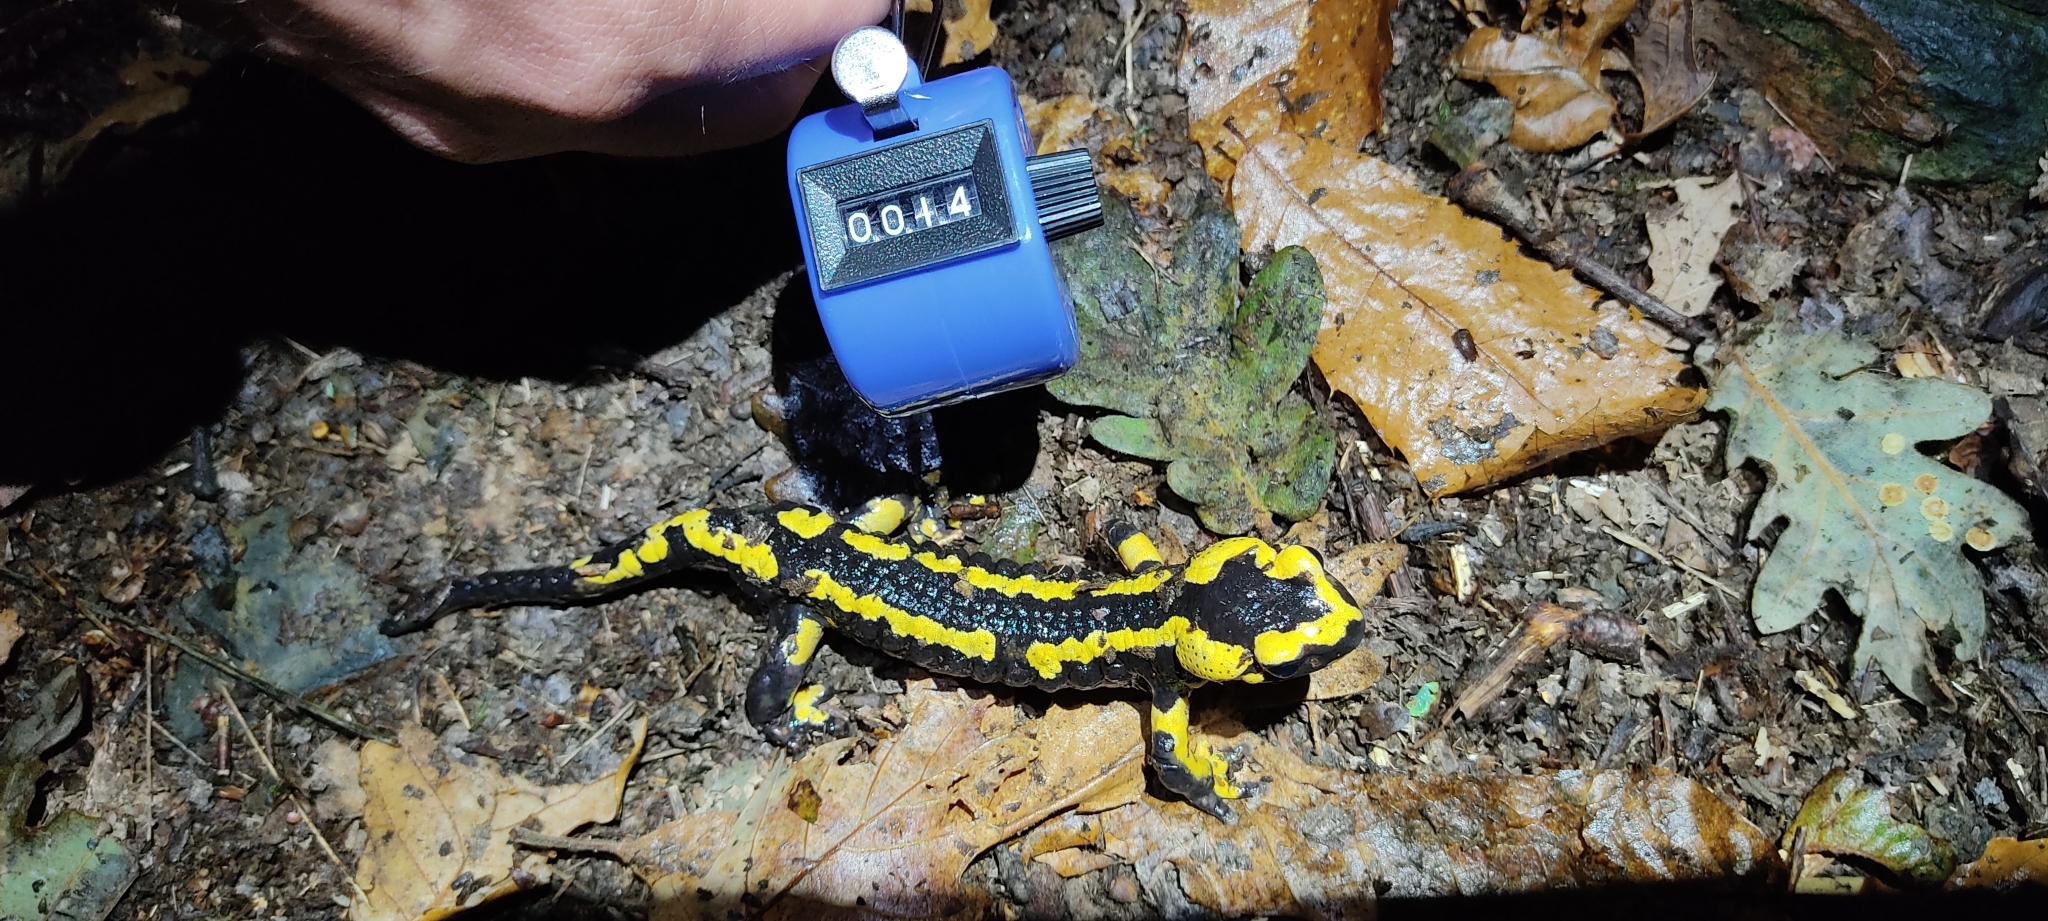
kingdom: Animalia
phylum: Chordata
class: Amphibia
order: Caudata
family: Salamandridae
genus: Salamandra
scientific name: Salamandra salamandra
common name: Fire salamander
